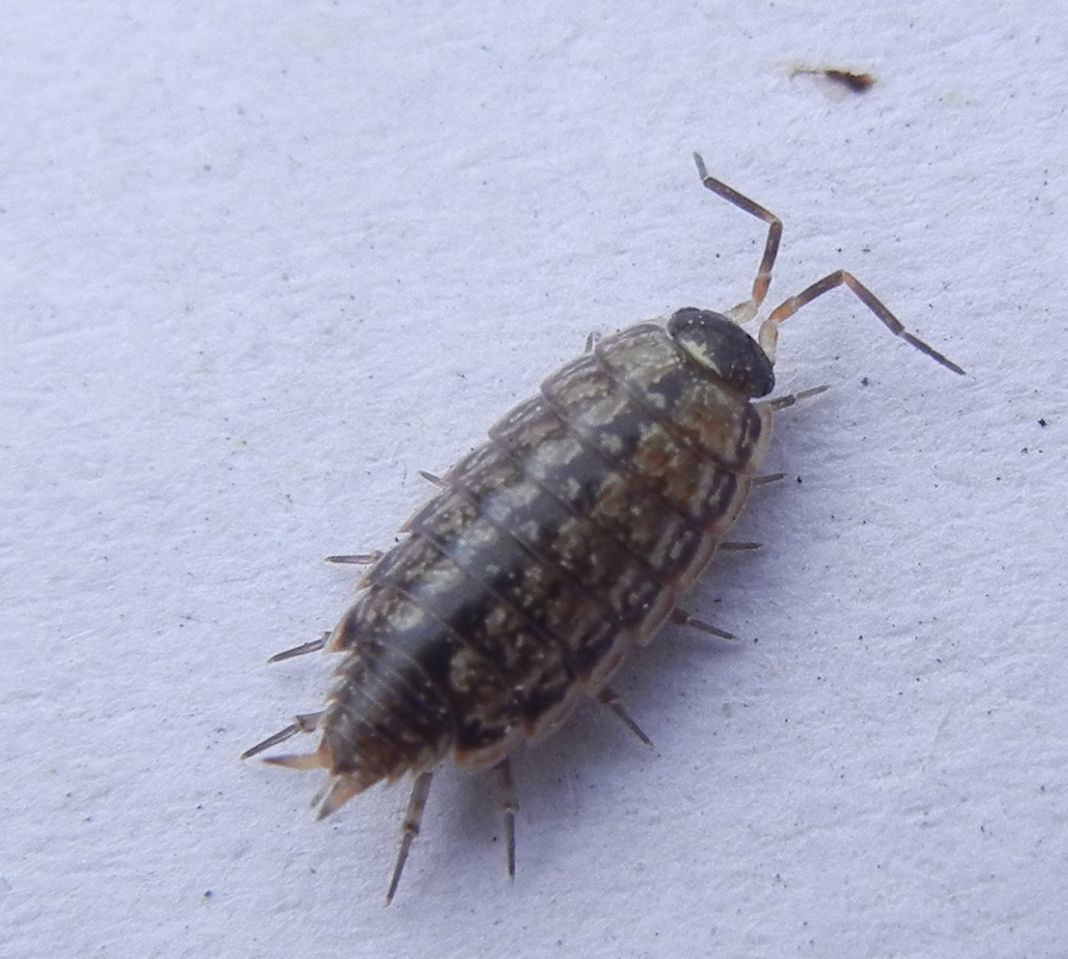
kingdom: Animalia
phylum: Arthropoda
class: Malacostraca
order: Isopoda
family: Philosciidae
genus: Philoscia
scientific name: Philoscia muscorum
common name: Common striped woodlouse
